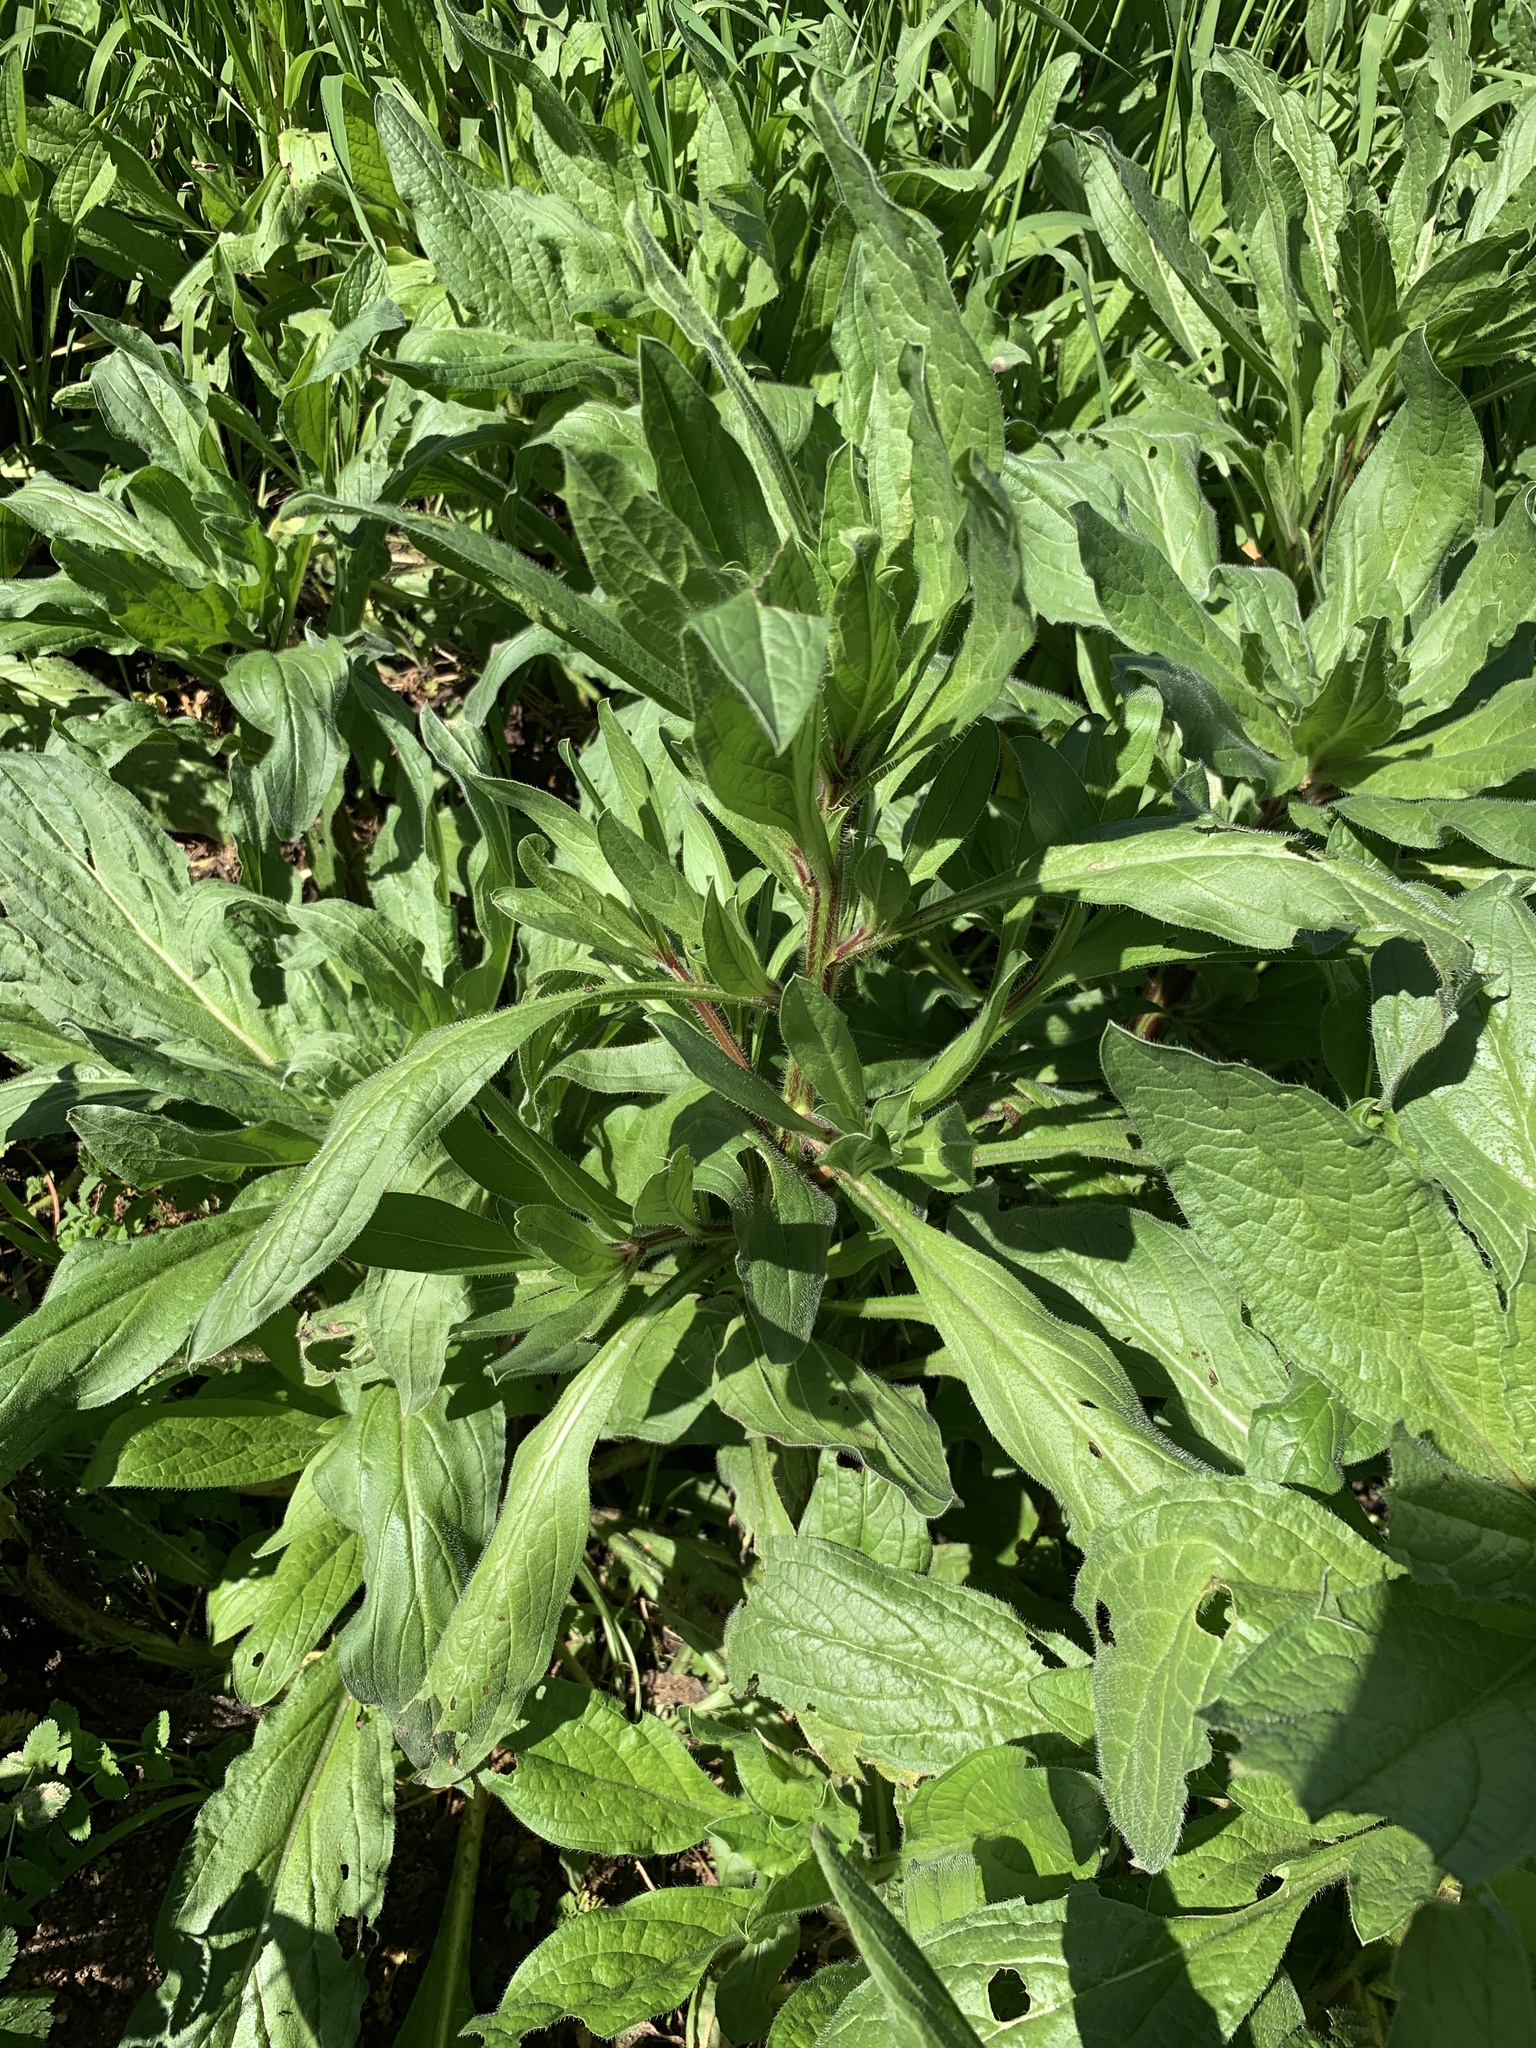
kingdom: Plantae
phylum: Tracheophyta
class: Magnoliopsida
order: Boraginales
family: Boraginaceae
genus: Echium
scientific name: Echium plantagineum
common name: Purple viper's-bugloss
